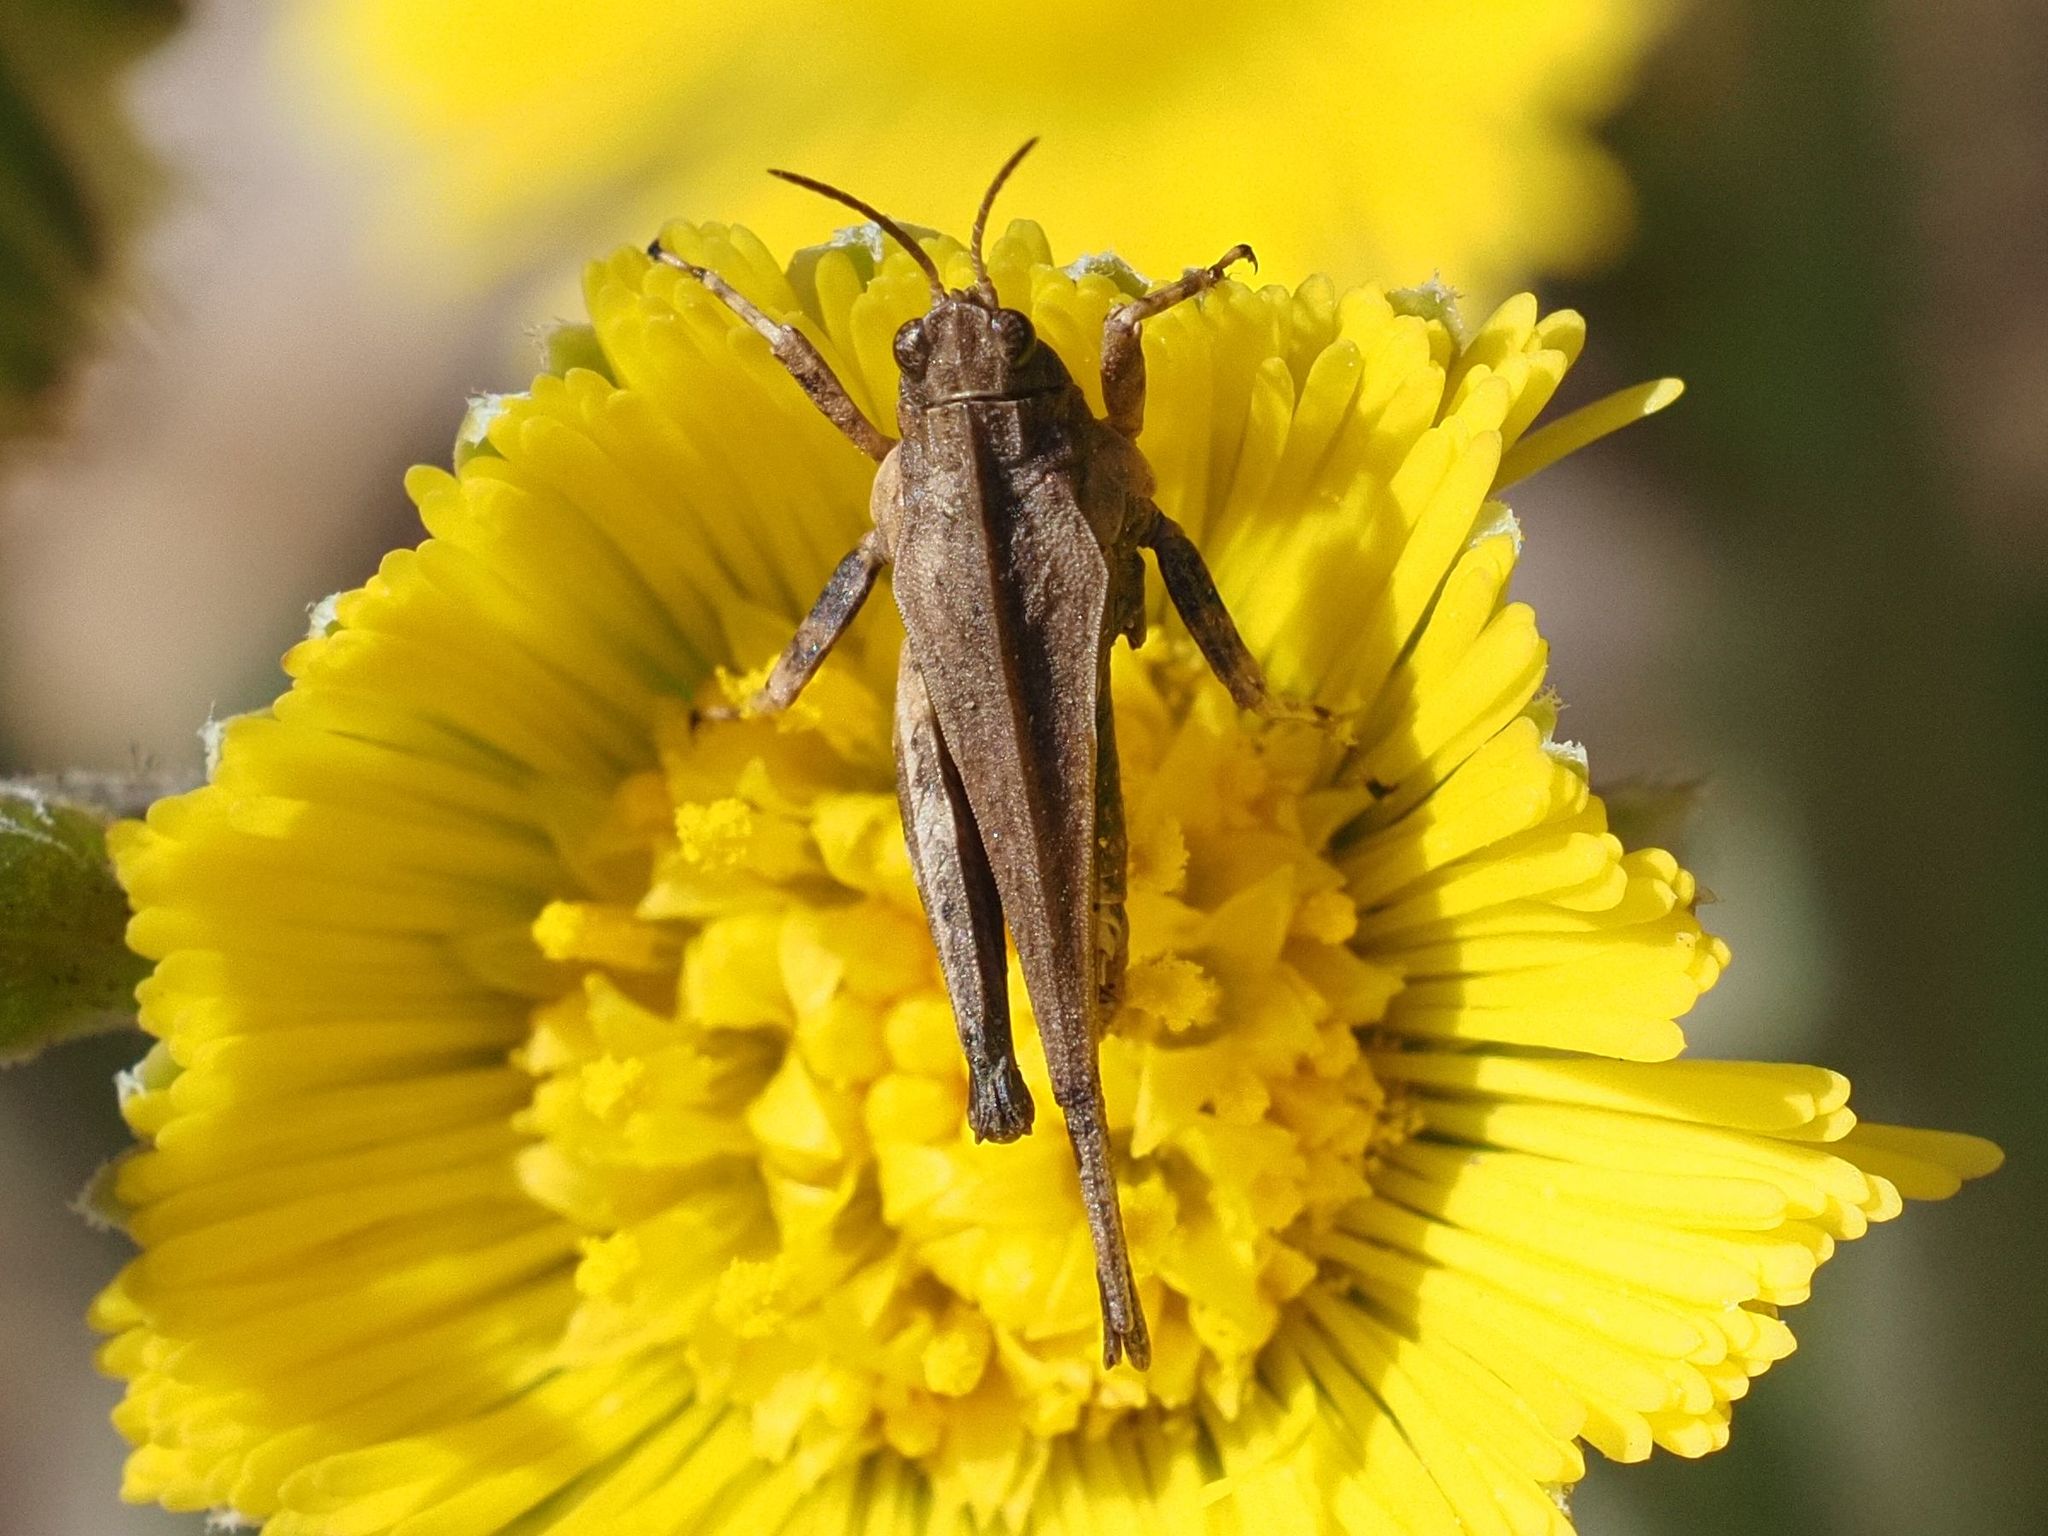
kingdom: Animalia
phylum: Arthropoda
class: Insecta
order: Orthoptera
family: Tetrigidae
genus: Tetrix
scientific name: Tetrix subulata
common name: Slender ground-hopper
